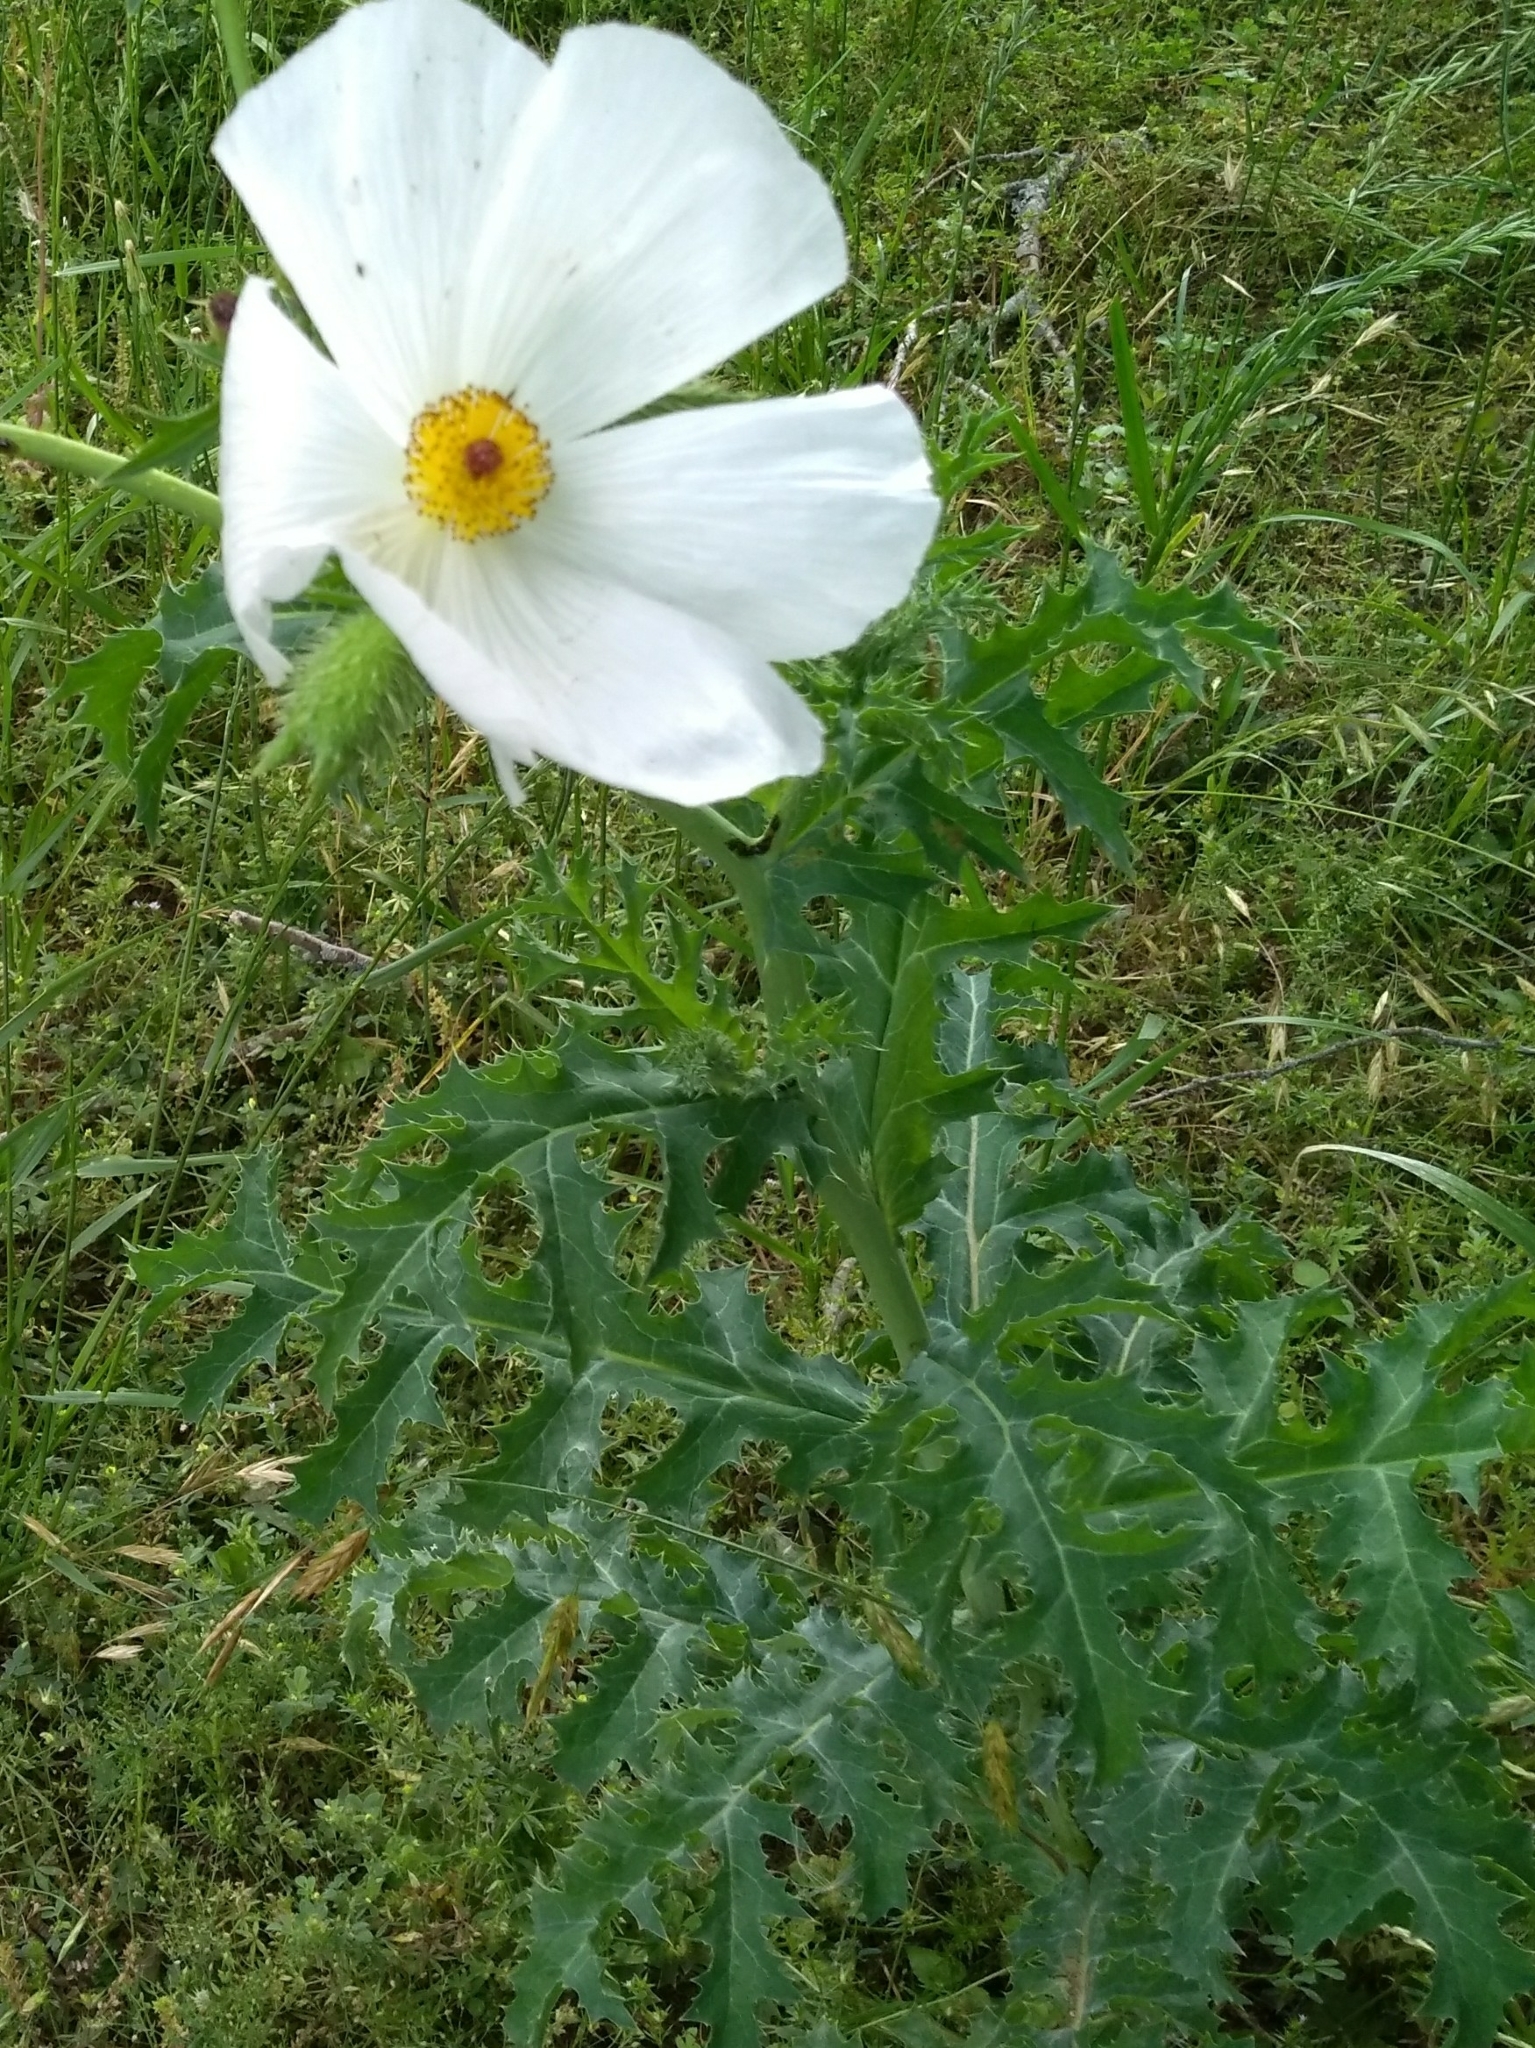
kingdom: Plantae
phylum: Tracheophyta
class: Magnoliopsida
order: Ranunculales
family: Papaveraceae
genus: Argemone
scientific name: Argemone albiflora
